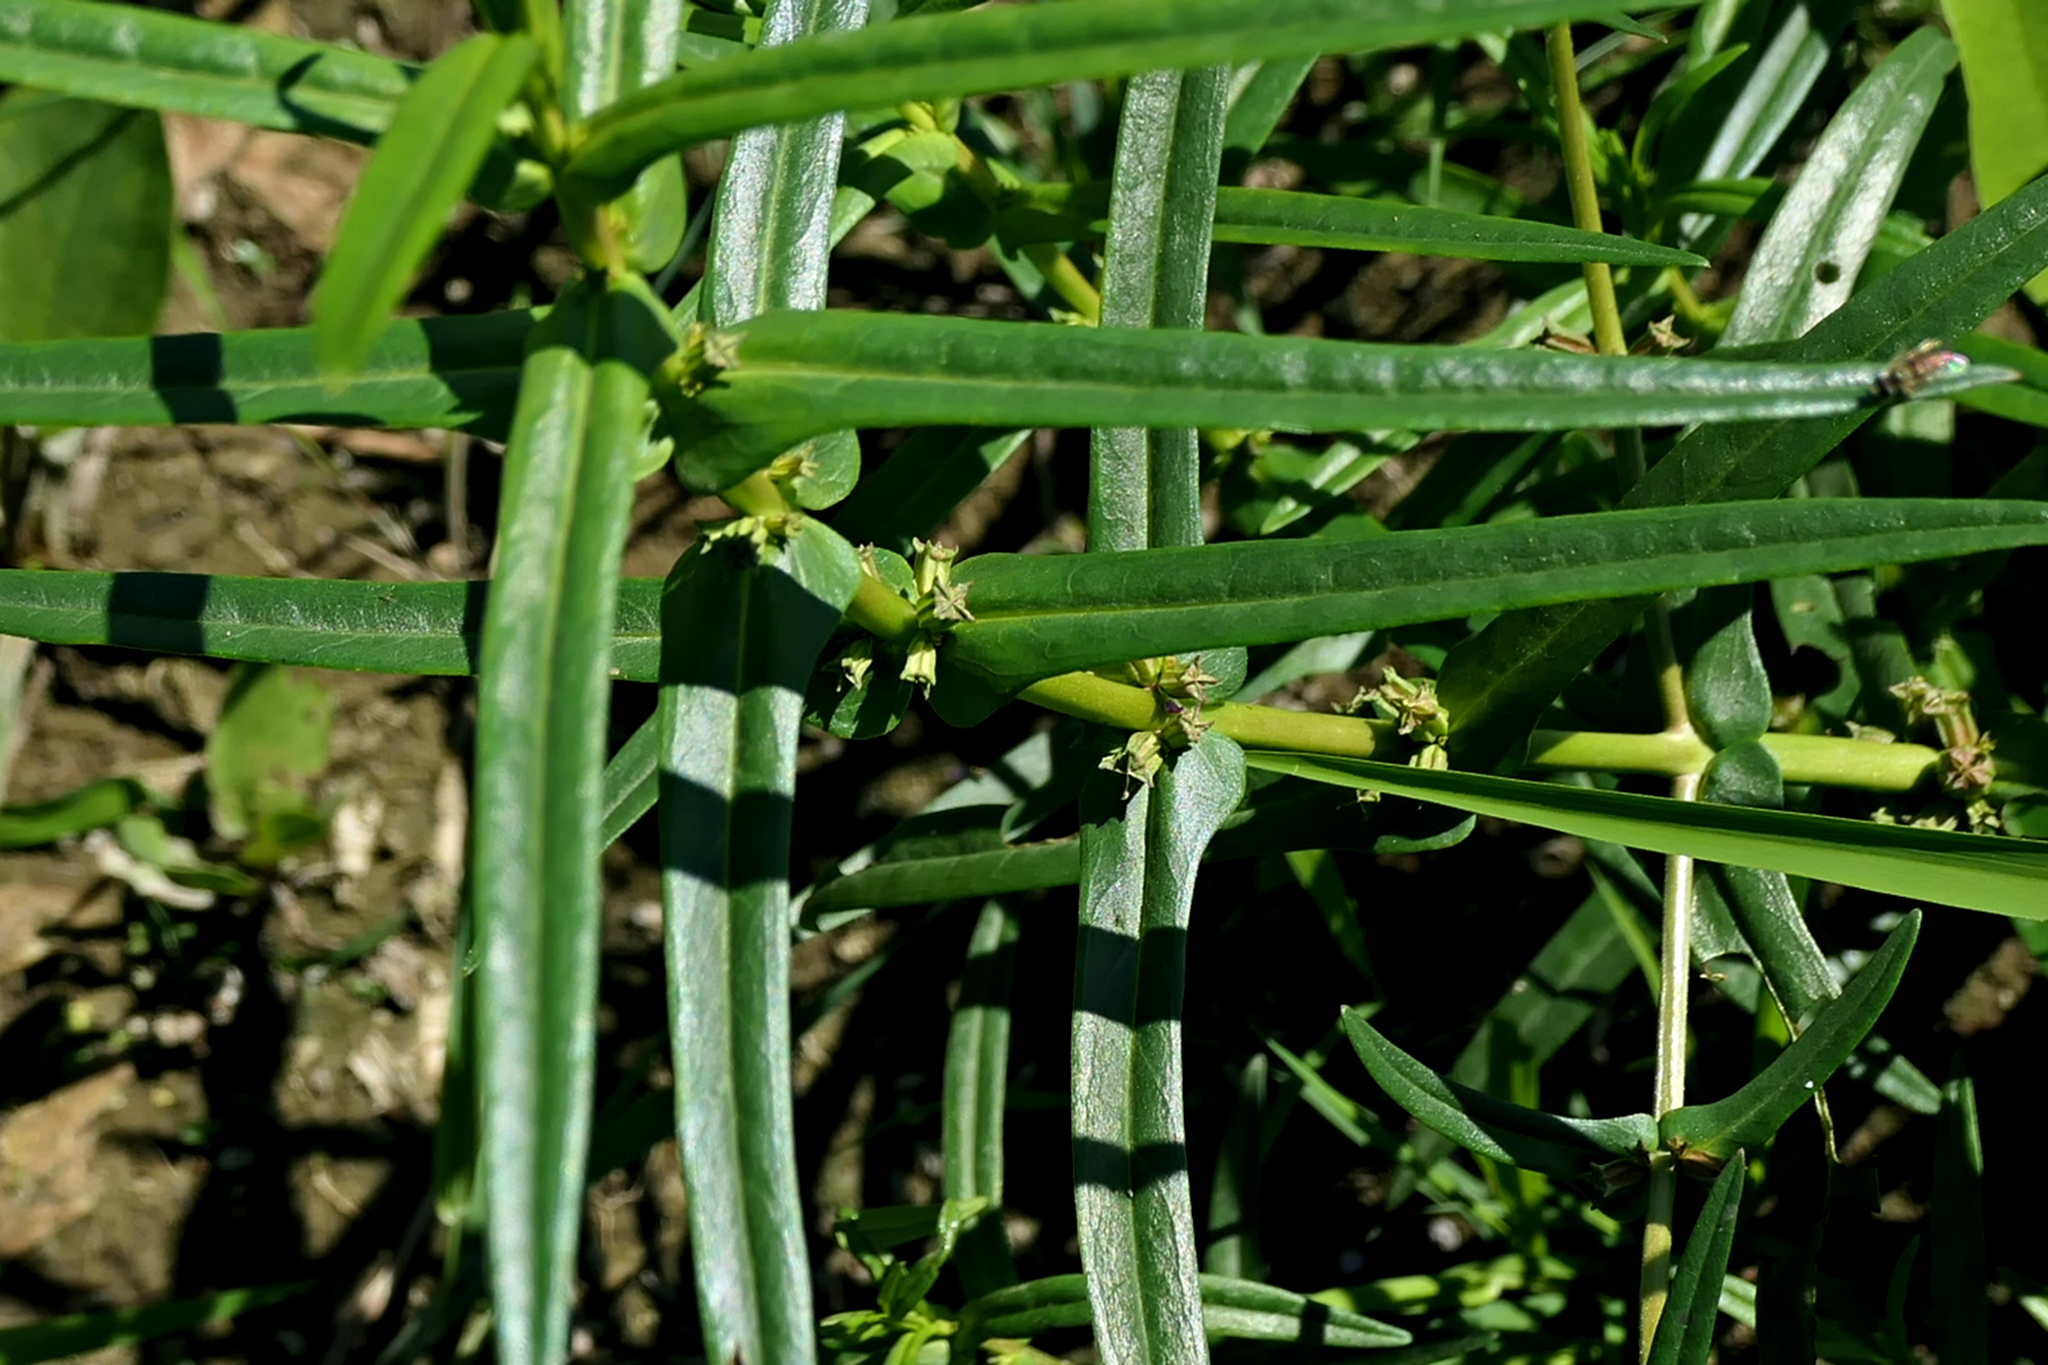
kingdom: Plantae
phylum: Tracheophyta
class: Magnoliopsida
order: Myrtales
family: Lythraceae
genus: Ammannia
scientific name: Ammannia robusta
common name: Grand ammannia
